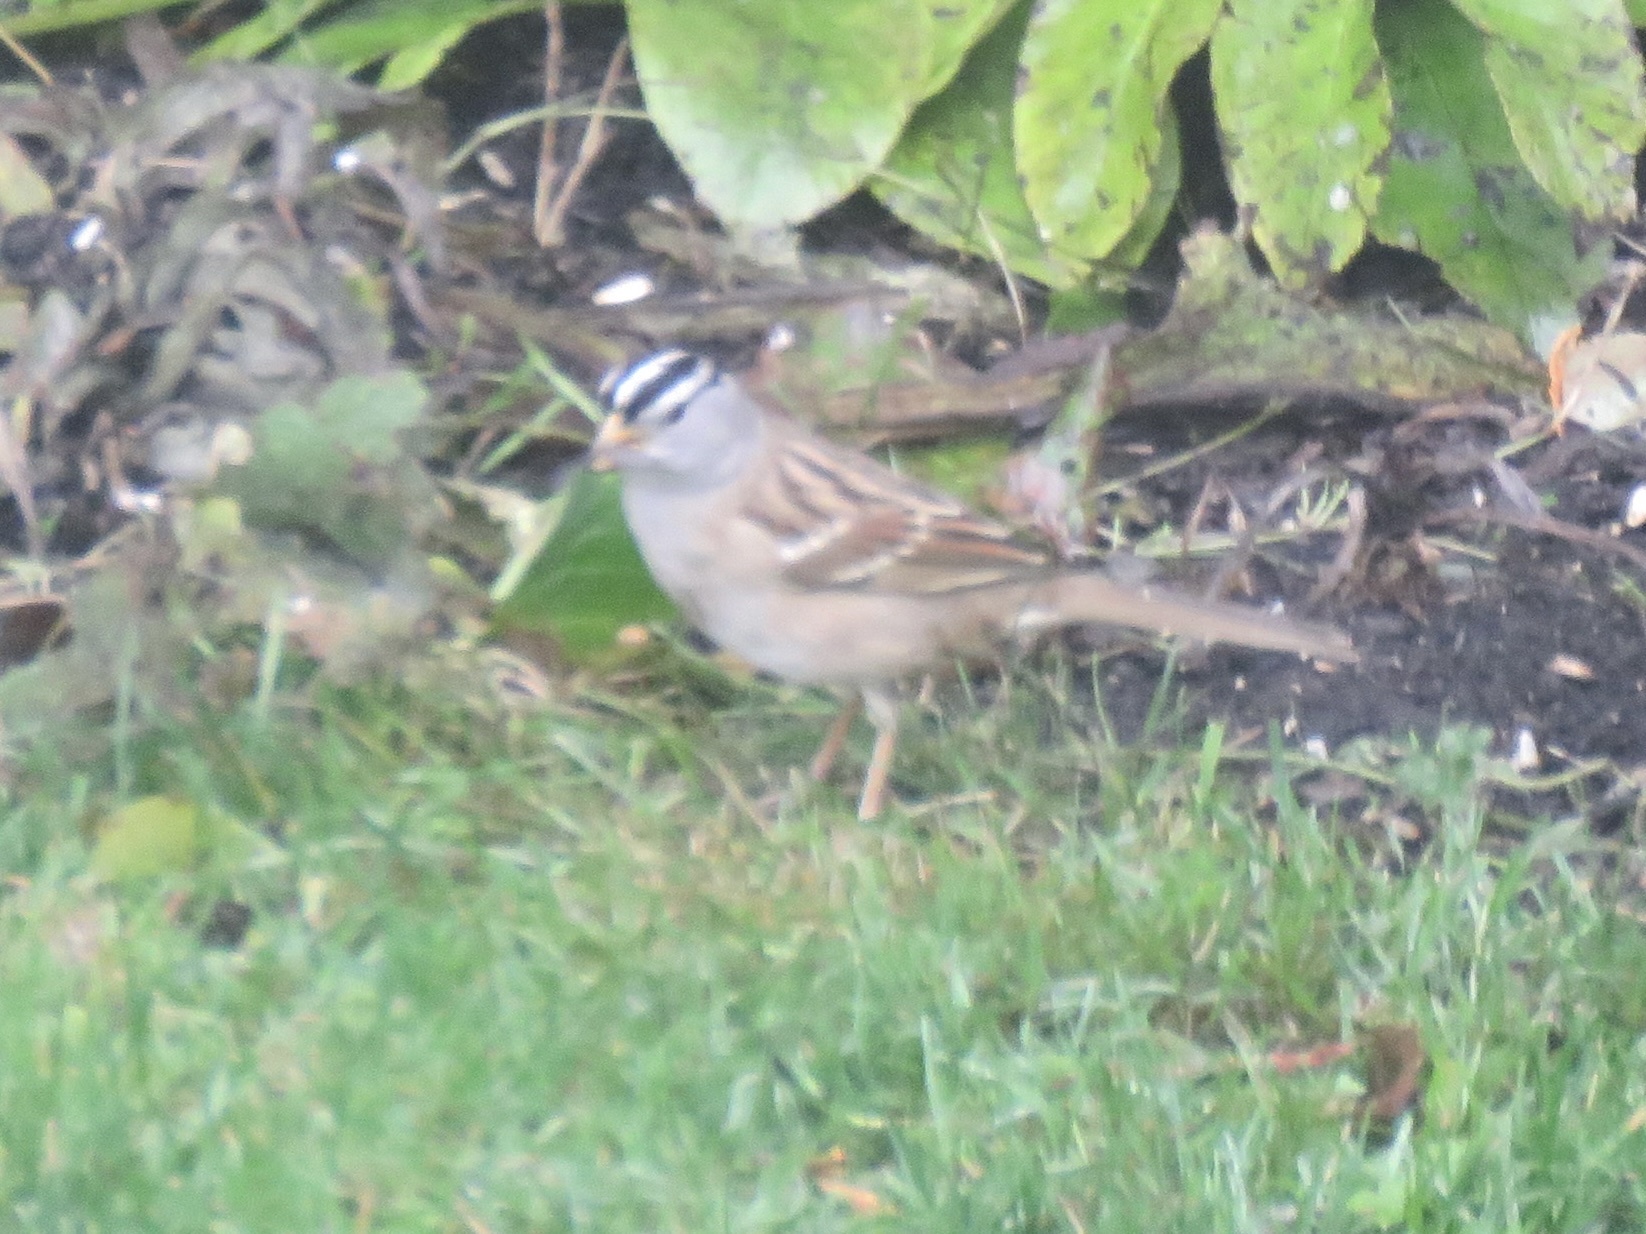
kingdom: Animalia
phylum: Chordata
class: Aves
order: Passeriformes
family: Passerellidae
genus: Zonotrichia
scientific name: Zonotrichia leucophrys
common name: White-crowned sparrow
